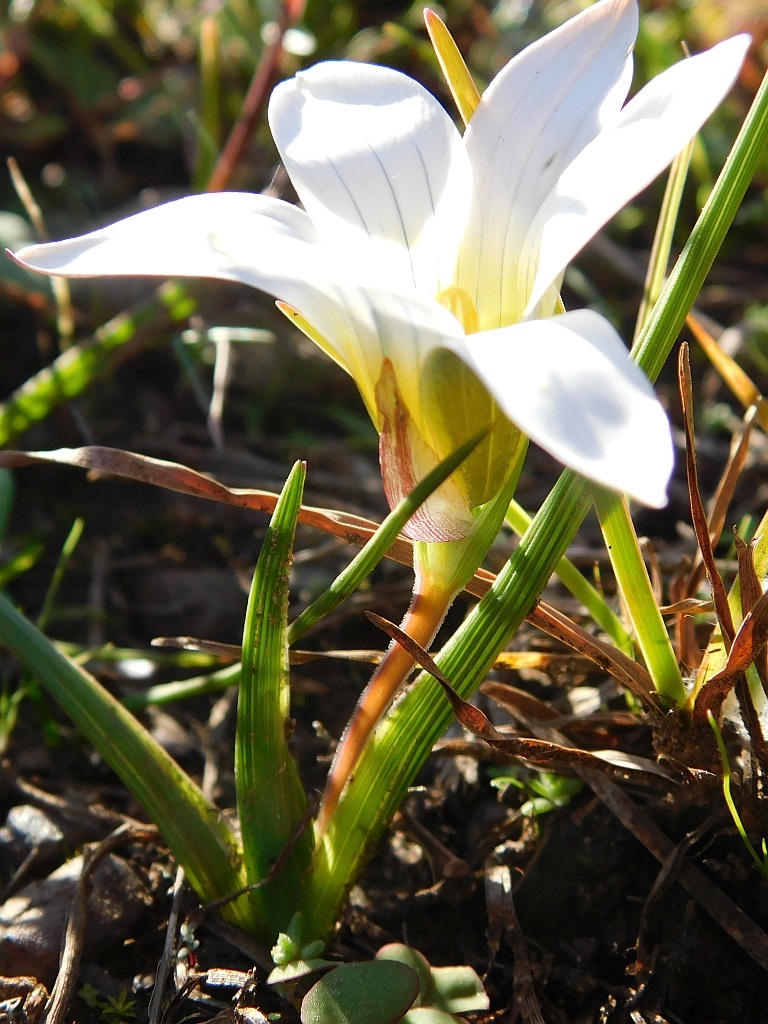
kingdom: Plantae
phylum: Tracheophyta
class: Liliopsida
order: Asparagales
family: Iridaceae
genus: Romulea
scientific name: Romulea flava
